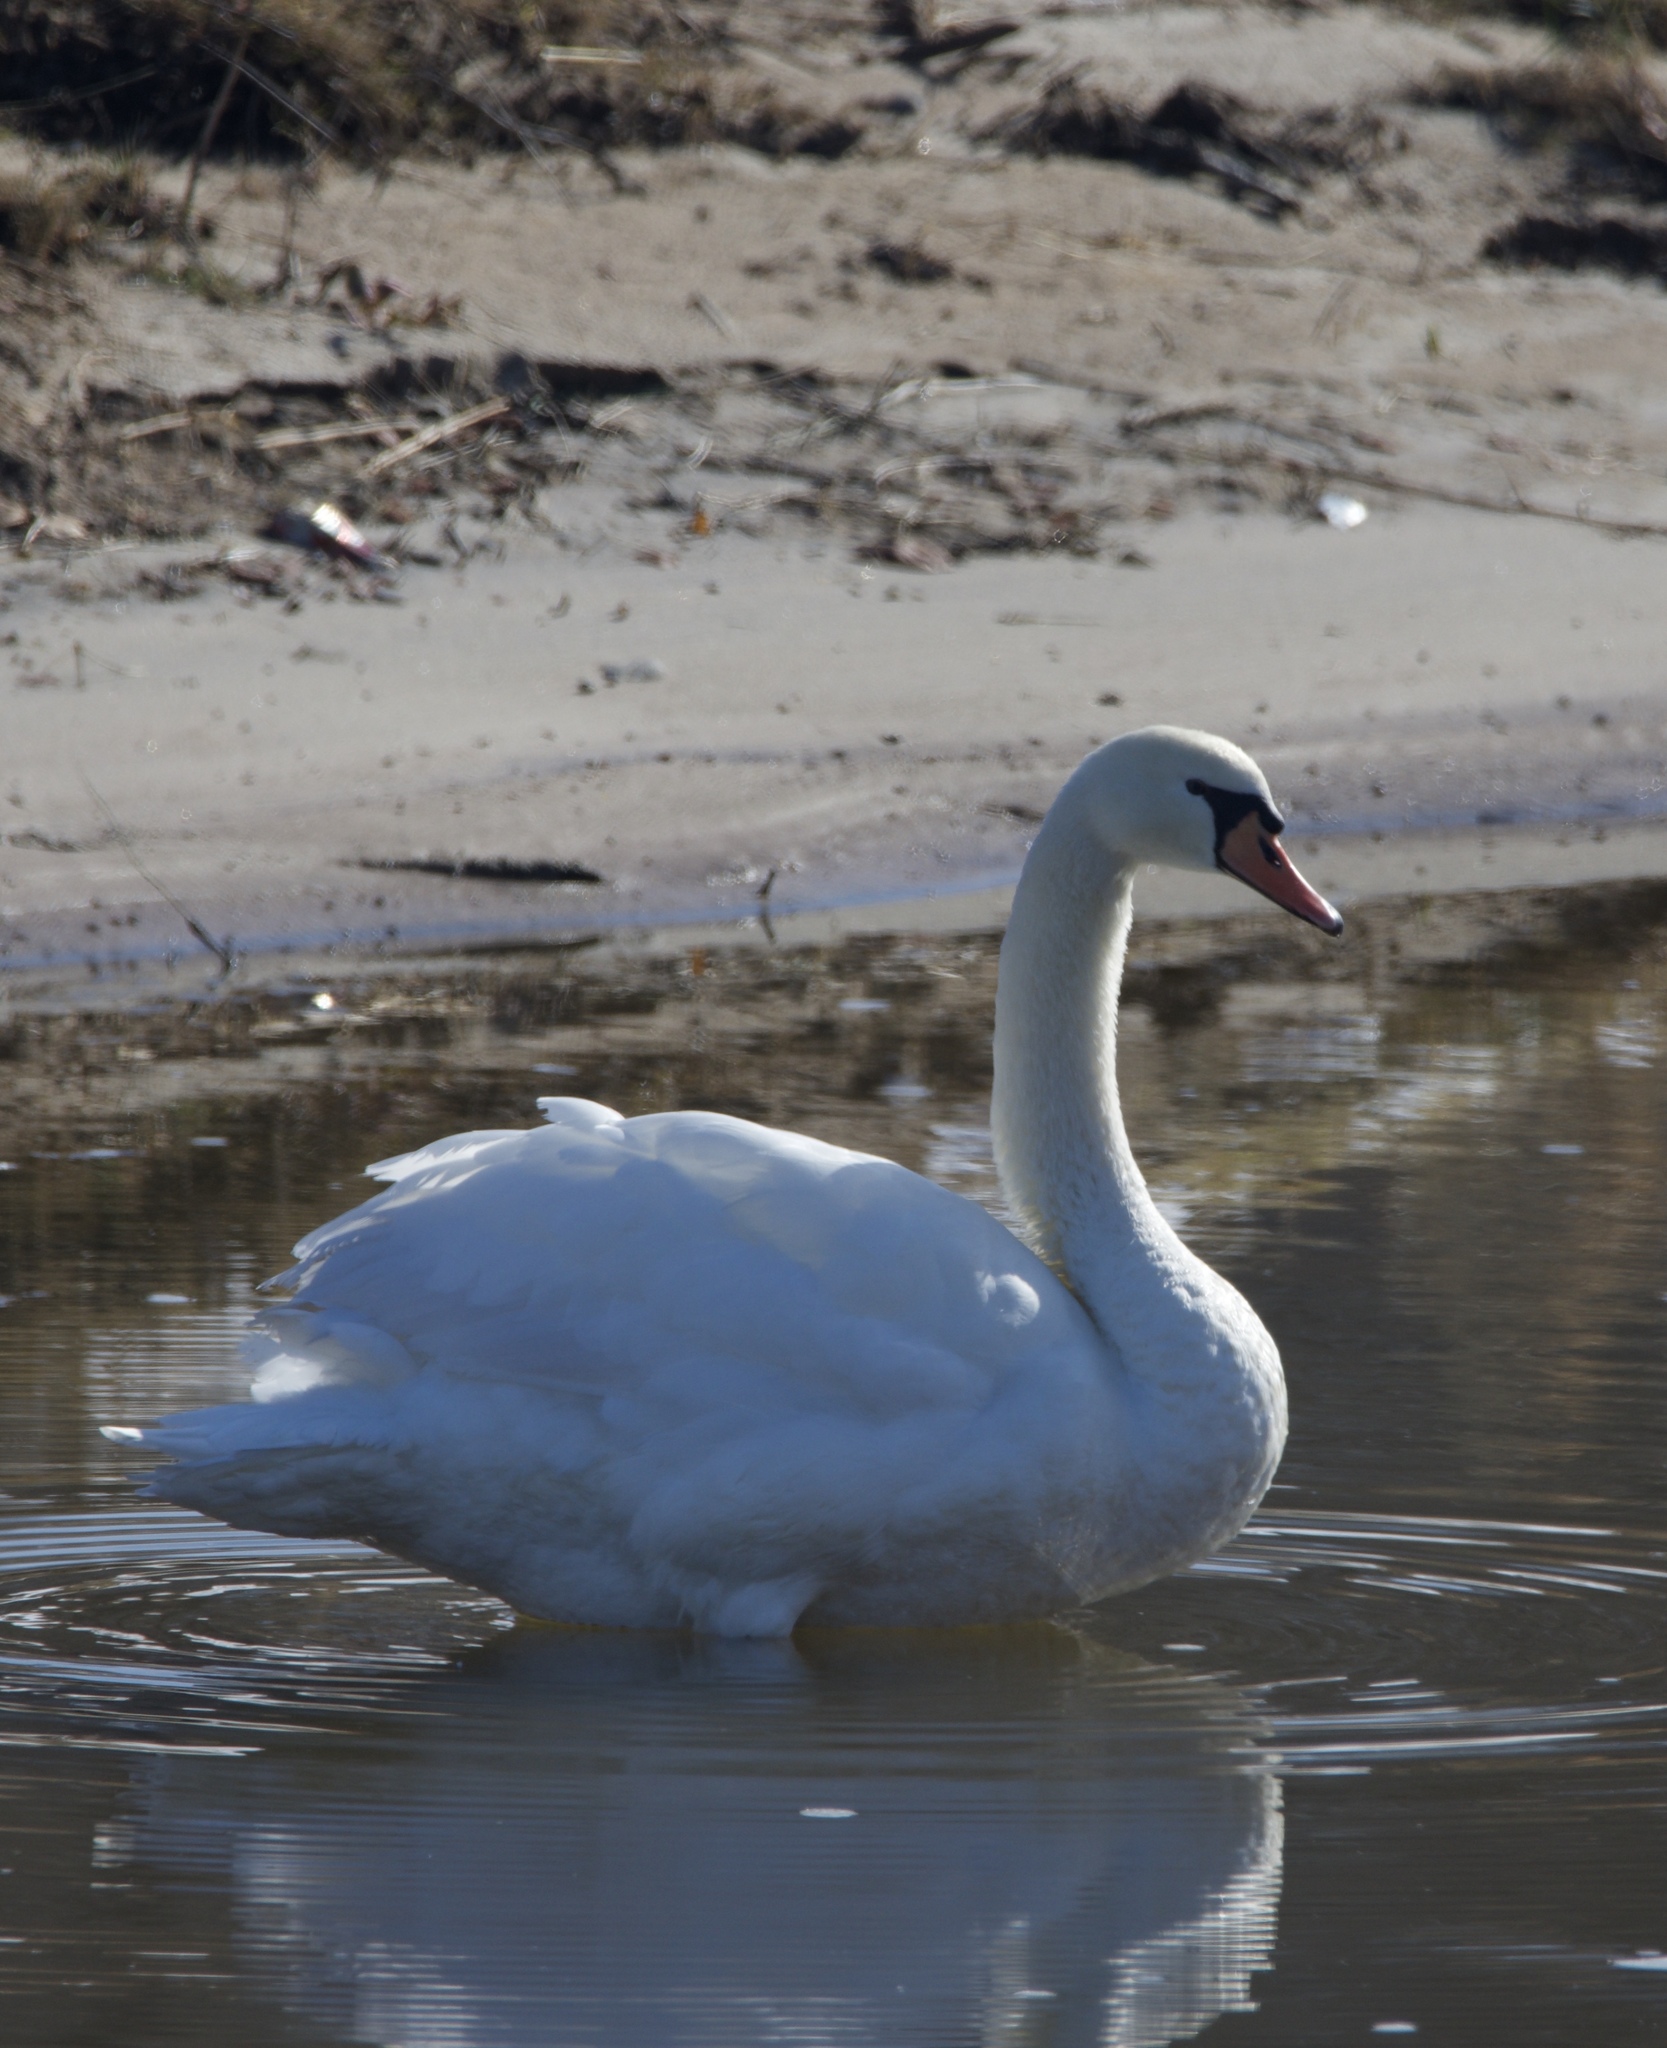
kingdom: Animalia
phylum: Chordata
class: Aves
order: Anseriformes
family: Anatidae
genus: Cygnus
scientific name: Cygnus olor
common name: Mute swan
